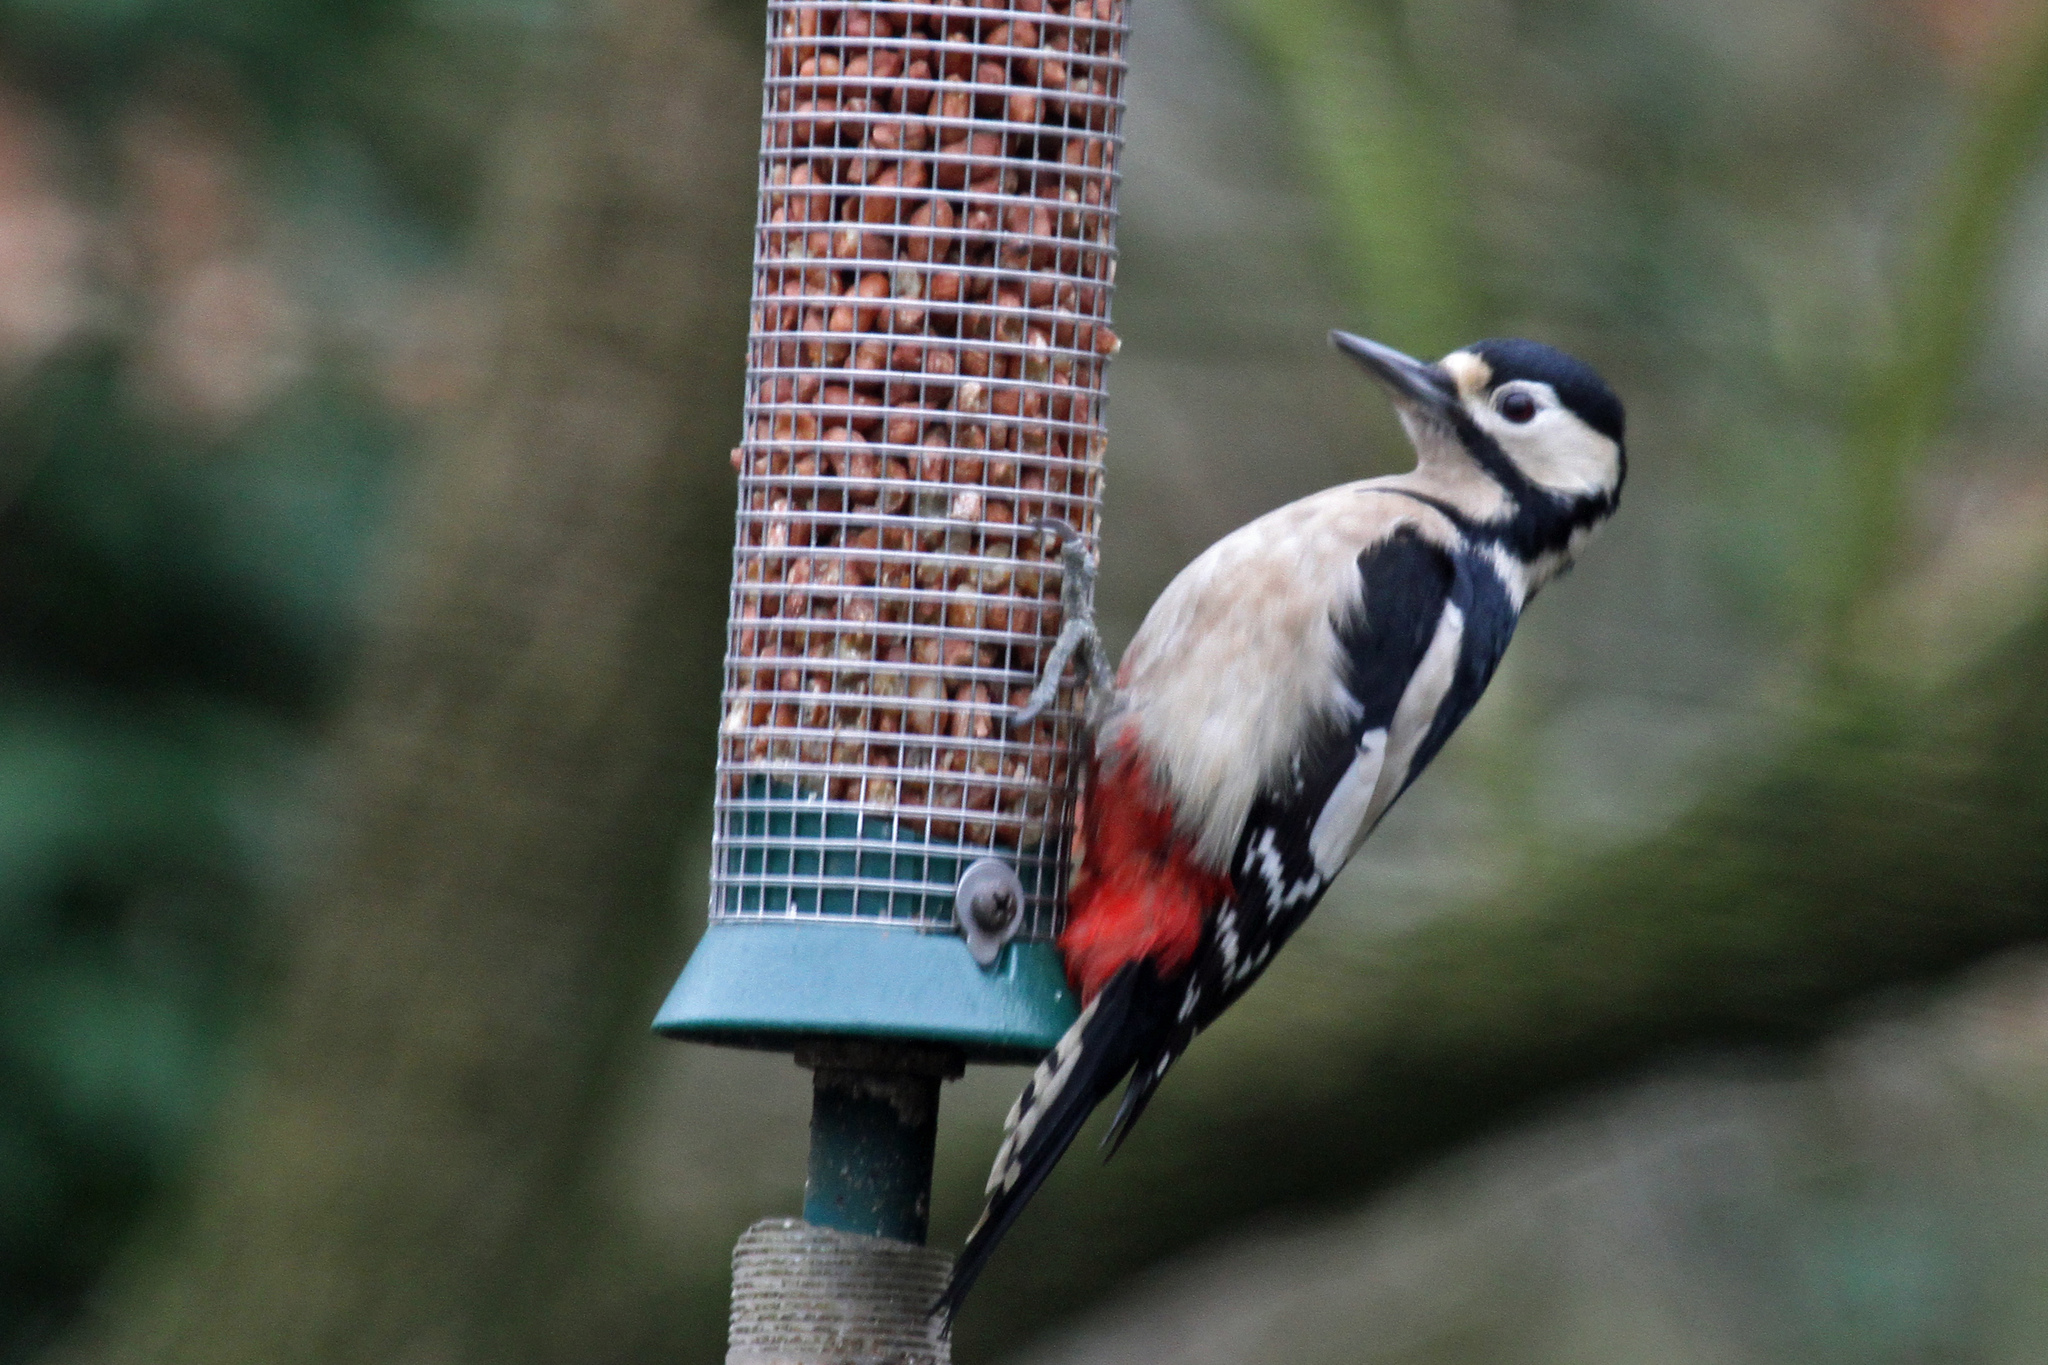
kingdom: Animalia
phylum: Chordata
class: Aves
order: Piciformes
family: Picidae
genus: Dendrocopos
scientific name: Dendrocopos major
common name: Great spotted woodpecker
